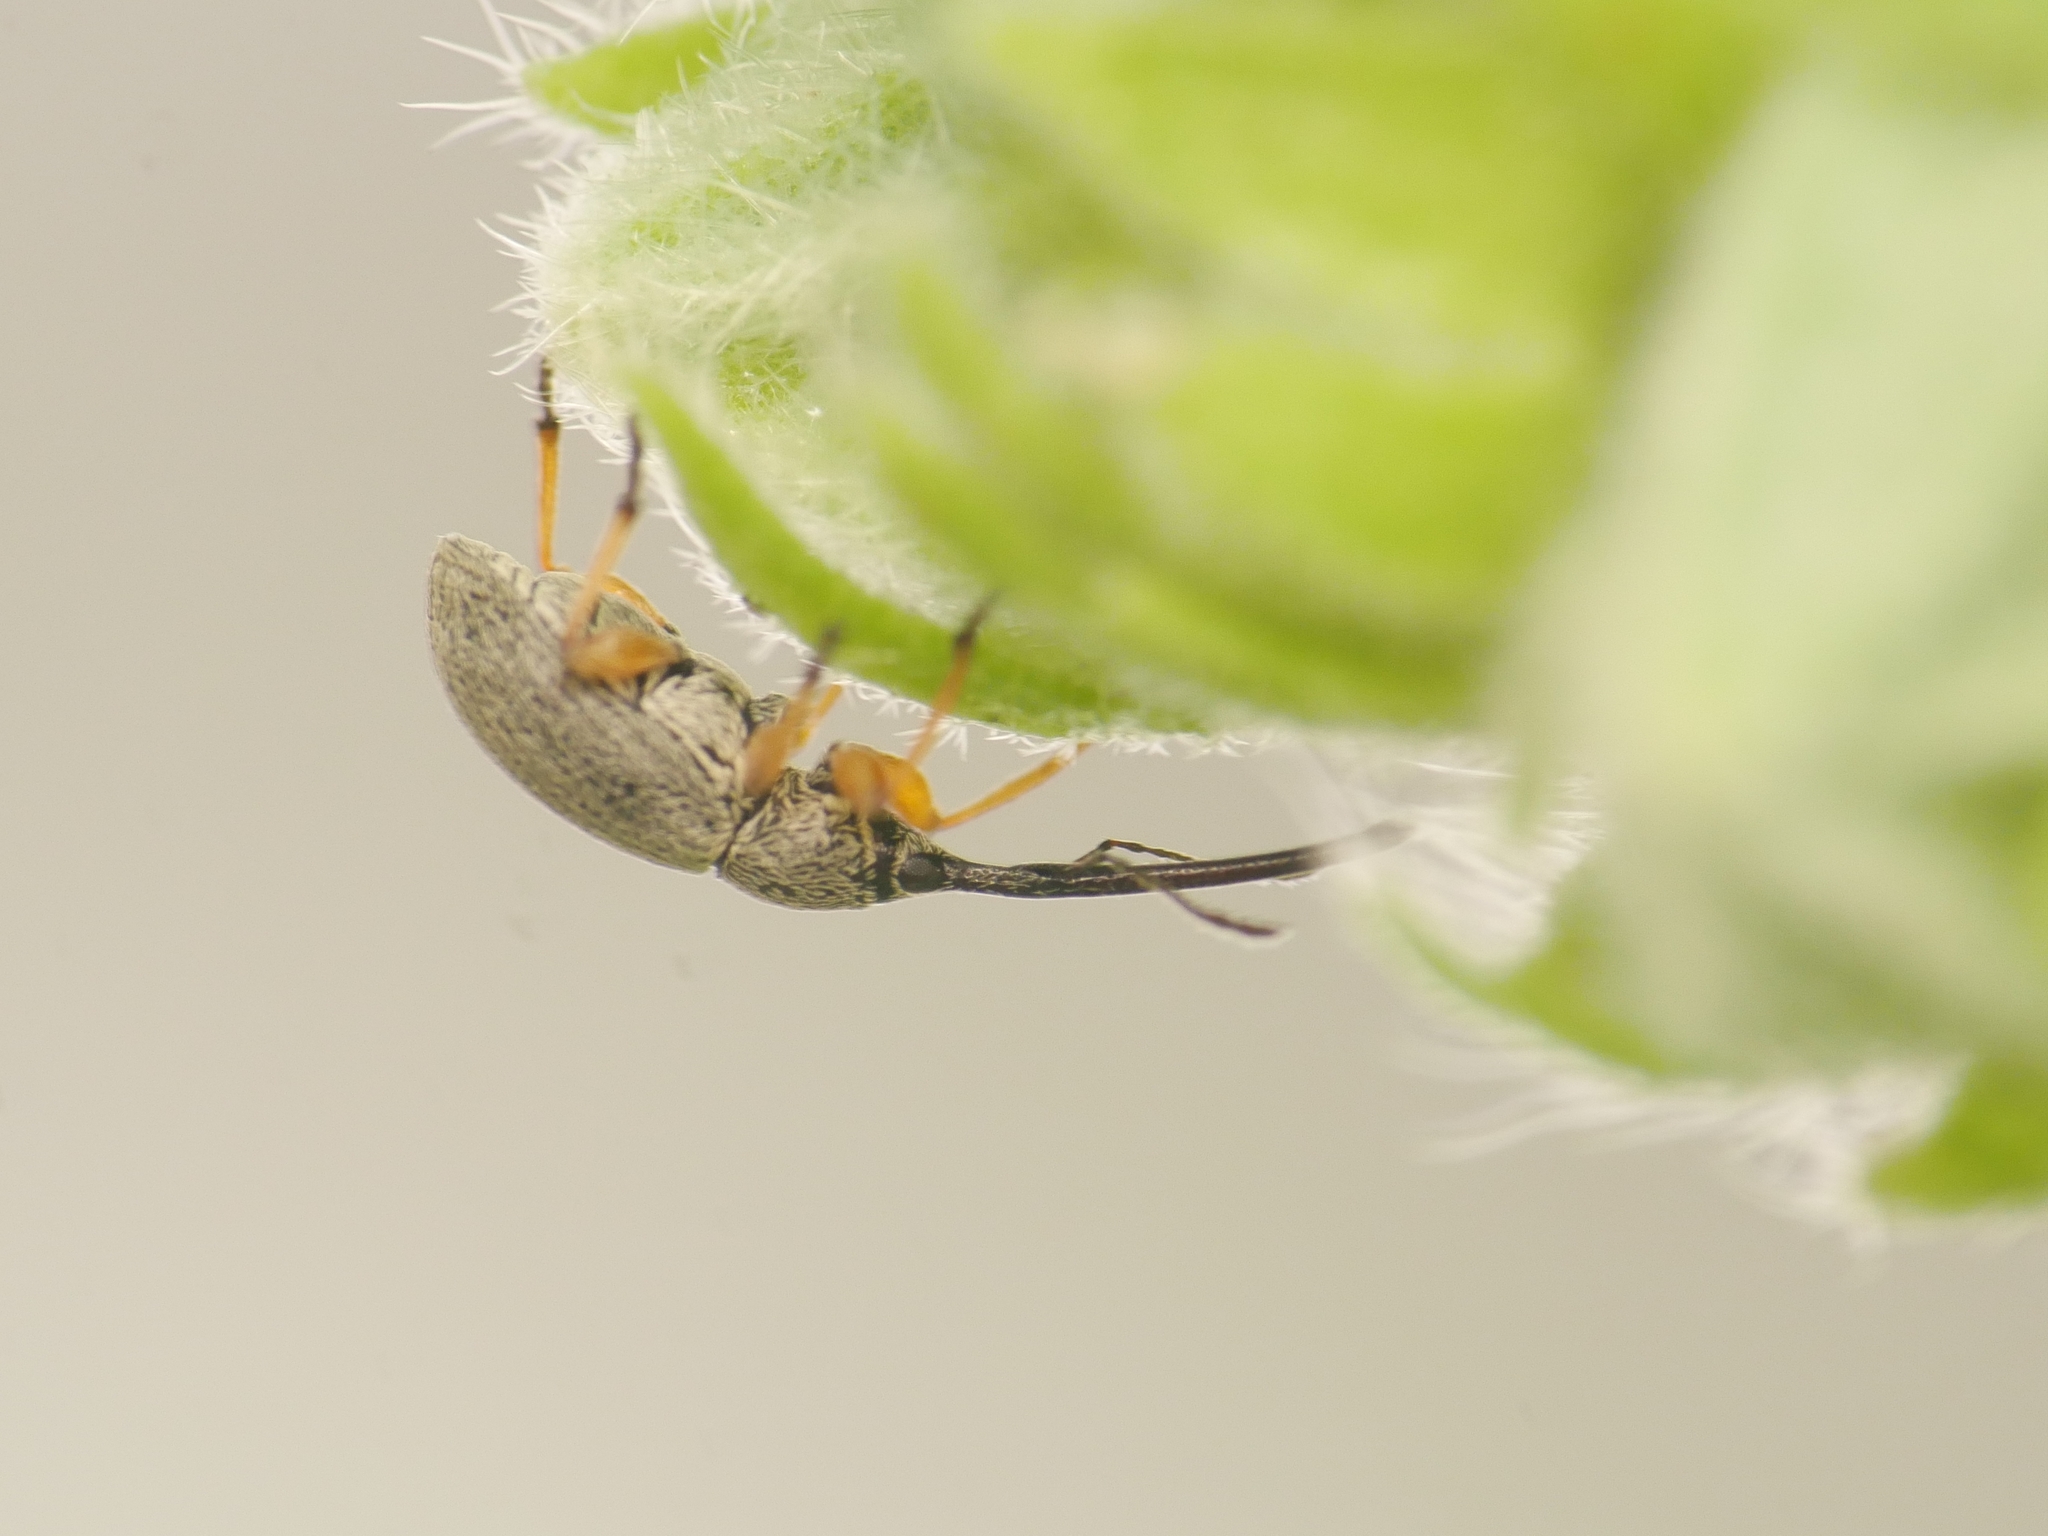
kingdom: Animalia
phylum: Arthropoda
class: Insecta
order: Coleoptera
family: Brentidae
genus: Rhopalapion
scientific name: Rhopalapion longirostre
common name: Hollyhock weevil
